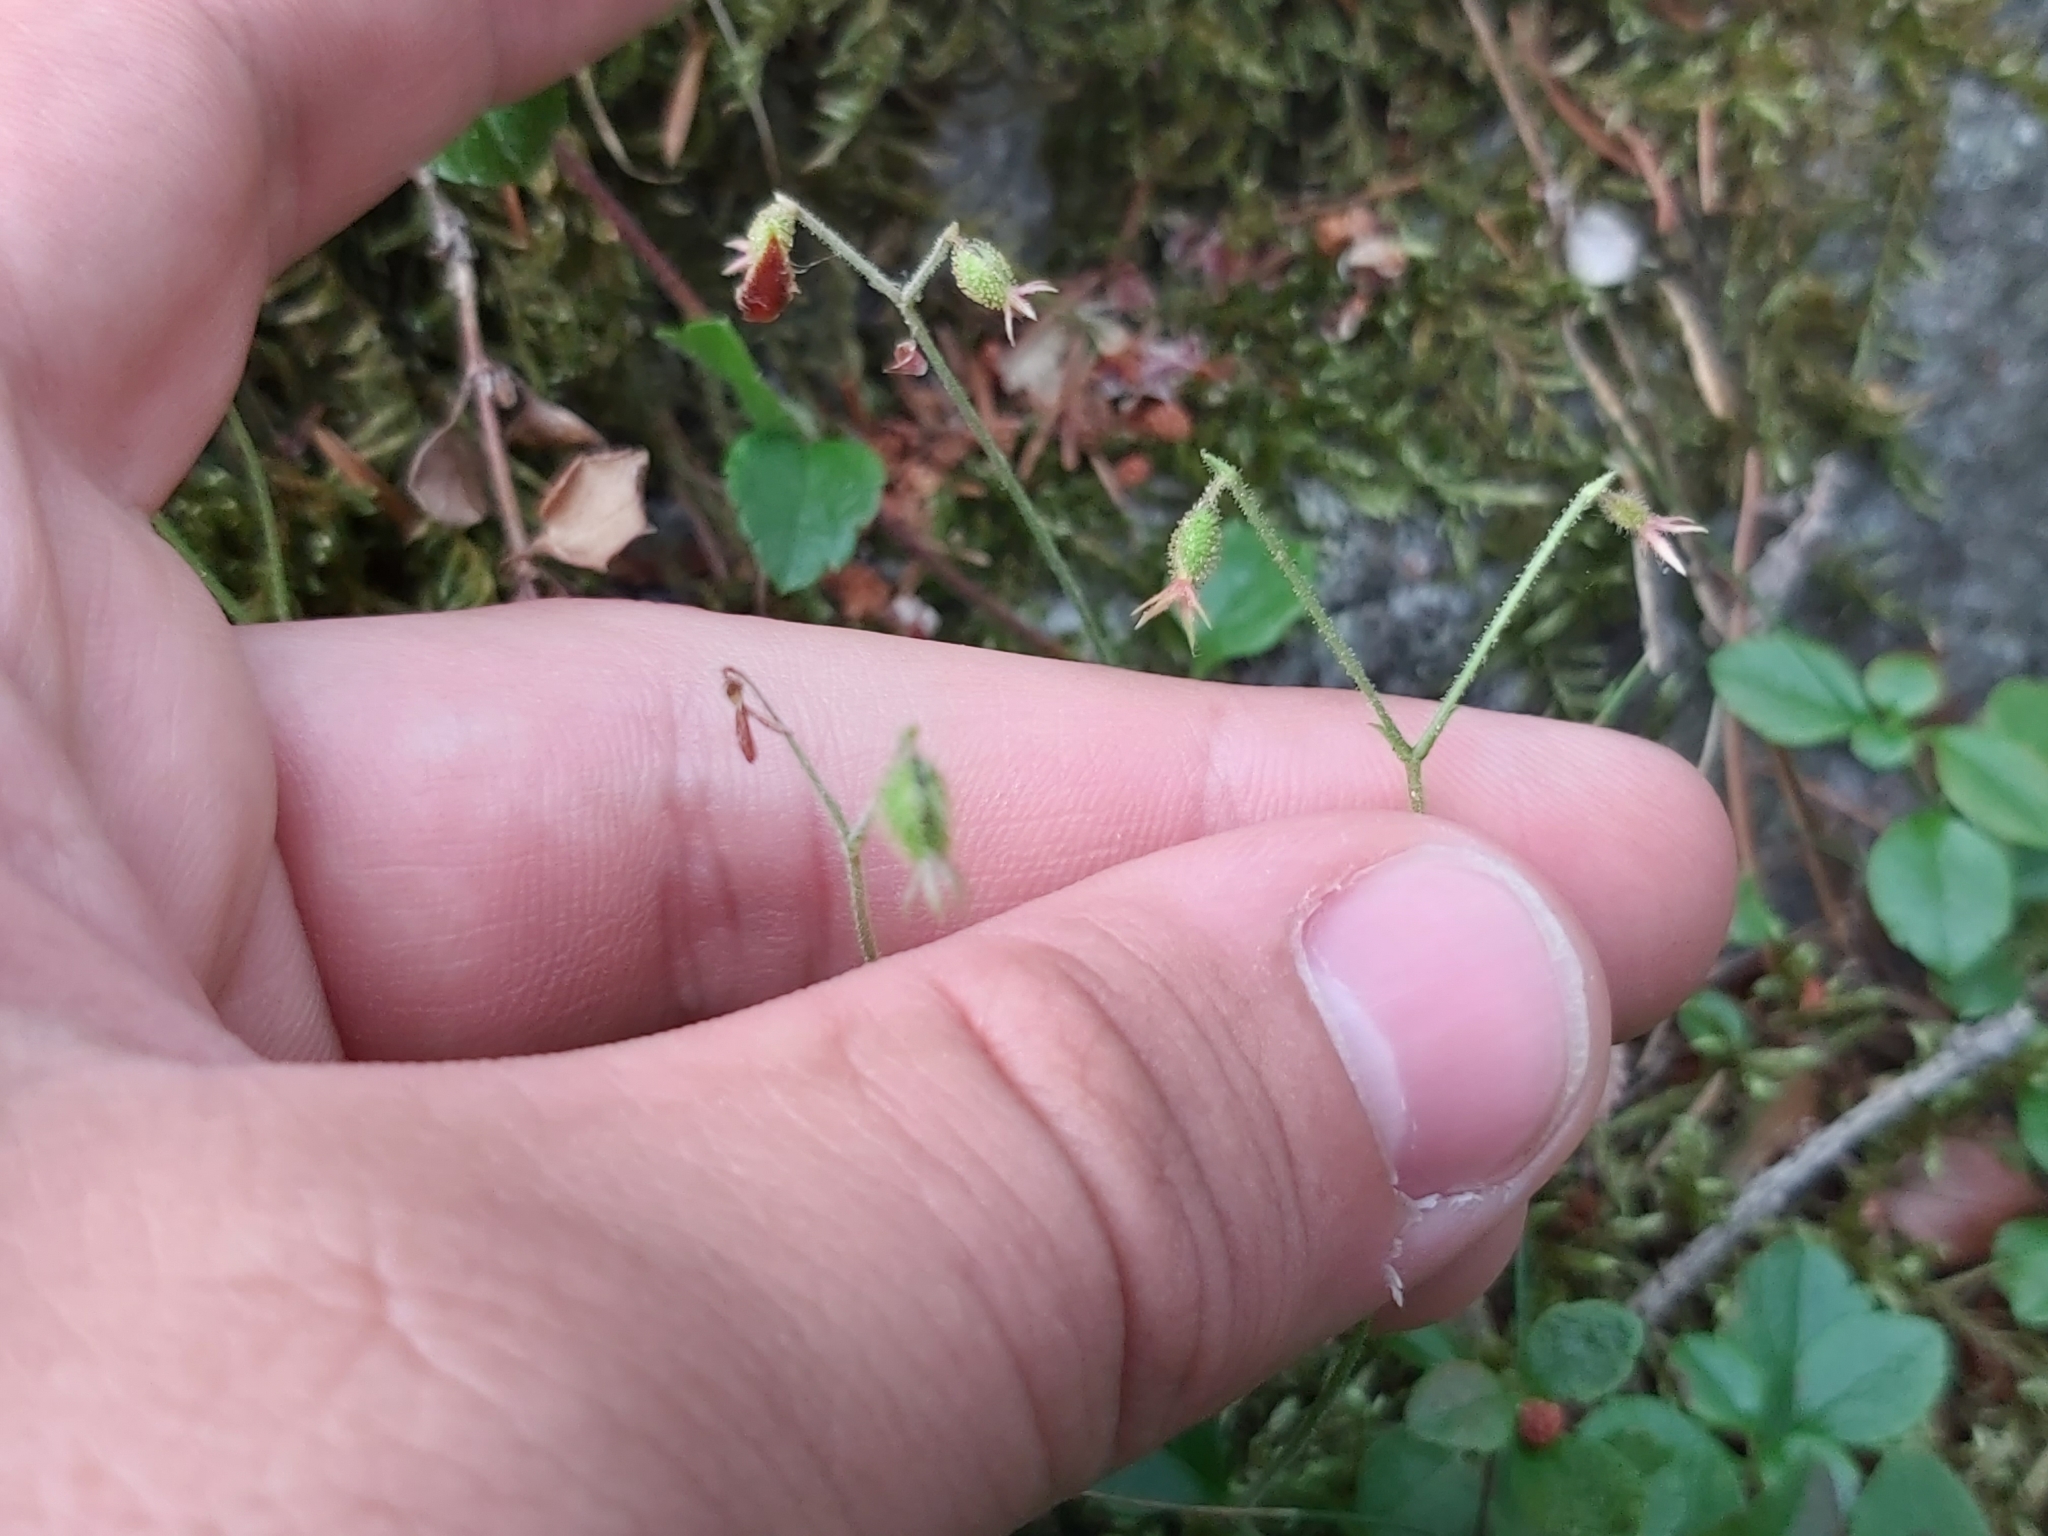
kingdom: Plantae
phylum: Tracheophyta
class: Magnoliopsida
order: Dipsacales
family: Caprifoliaceae
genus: Linnaea
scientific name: Linnaea borealis
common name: Twinflower
